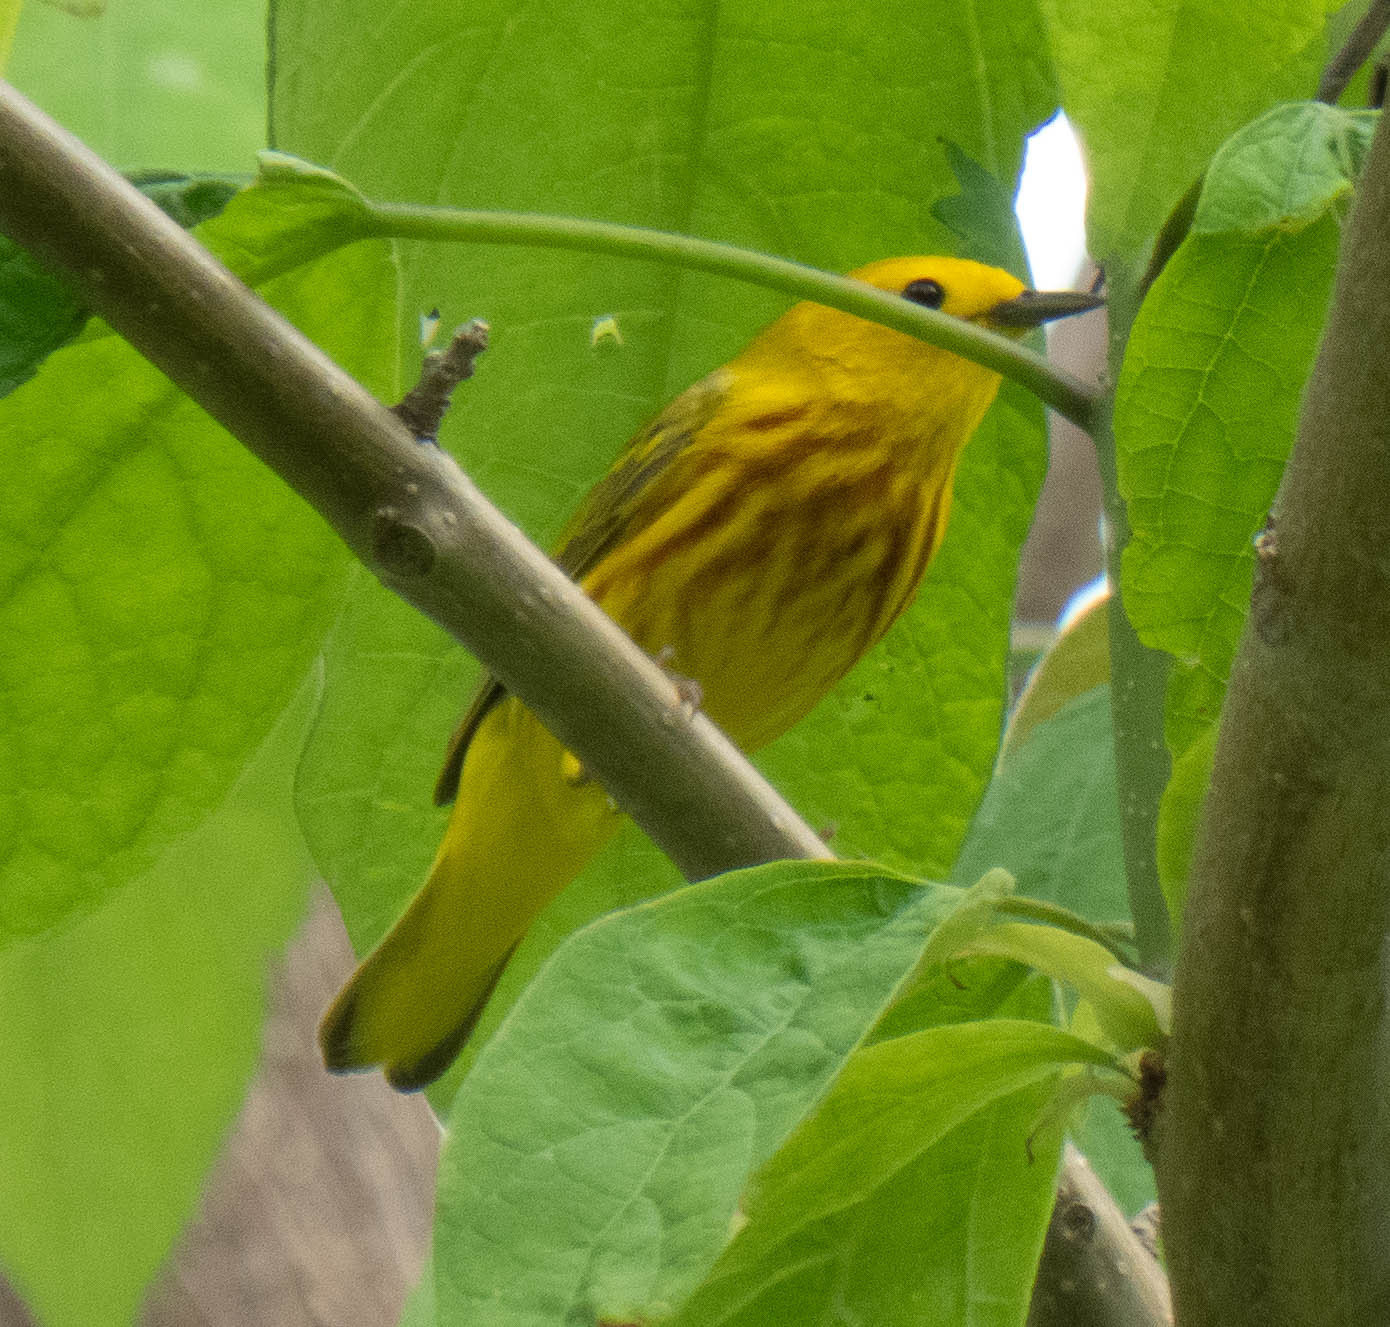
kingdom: Animalia
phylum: Chordata
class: Aves
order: Passeriformes
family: Parulidae
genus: Setophaga
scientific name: Setophaga petechia
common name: Yellow warbler
